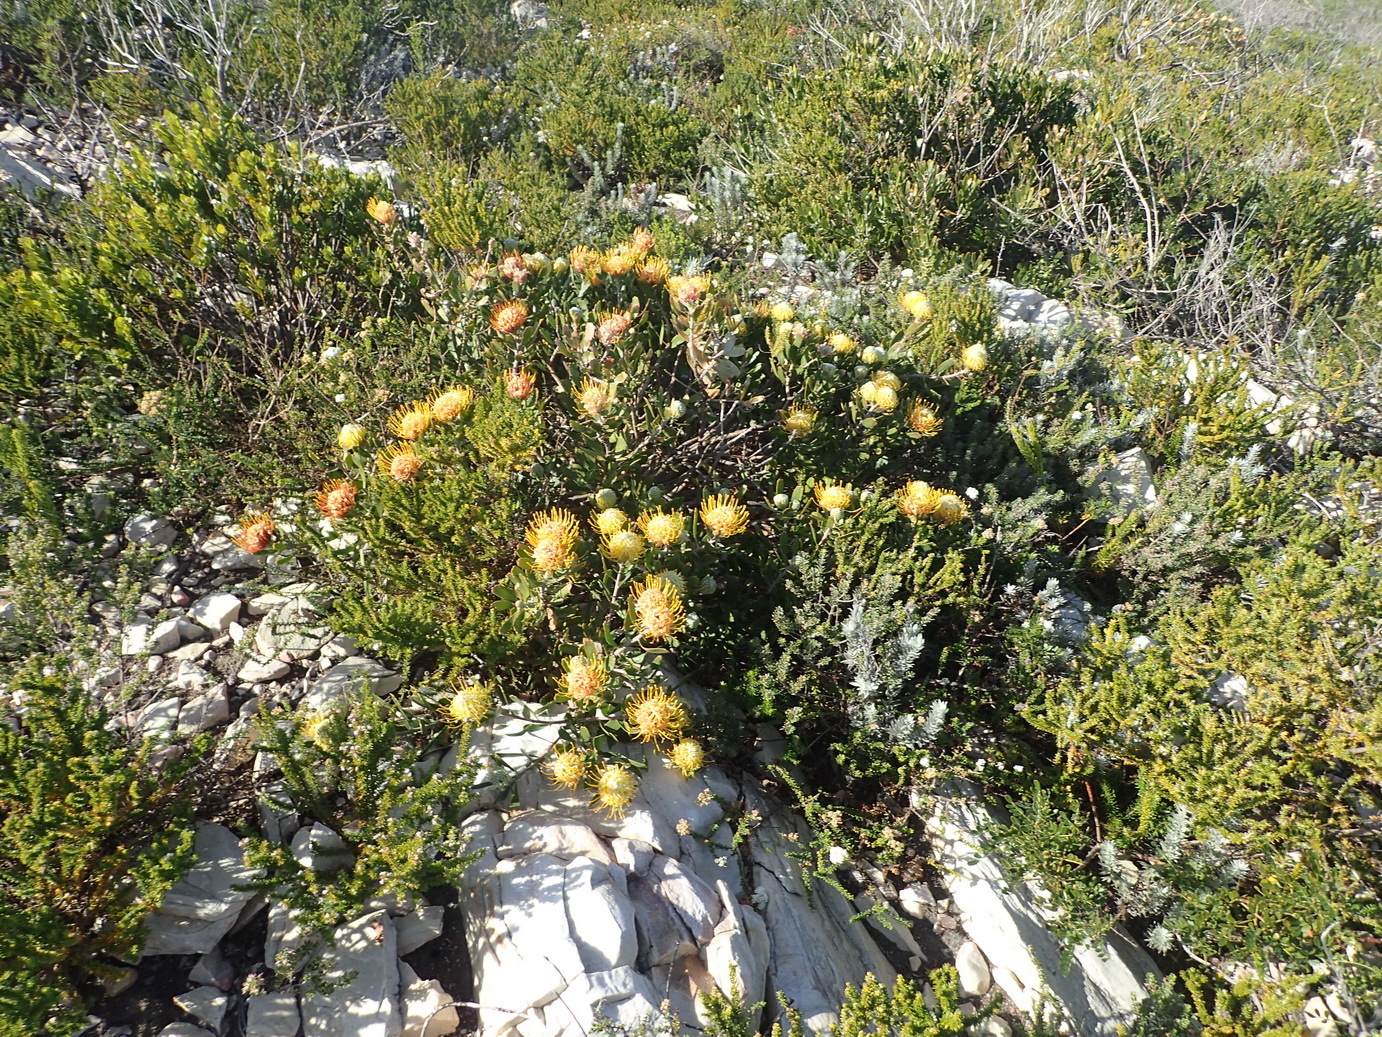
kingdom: Plantae
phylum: Tracheophyta
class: Magnoliopsida
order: Proteales
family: Proteaceae
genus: Leucospermum
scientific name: Leucospermum cuneiforme
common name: Common pincushion
